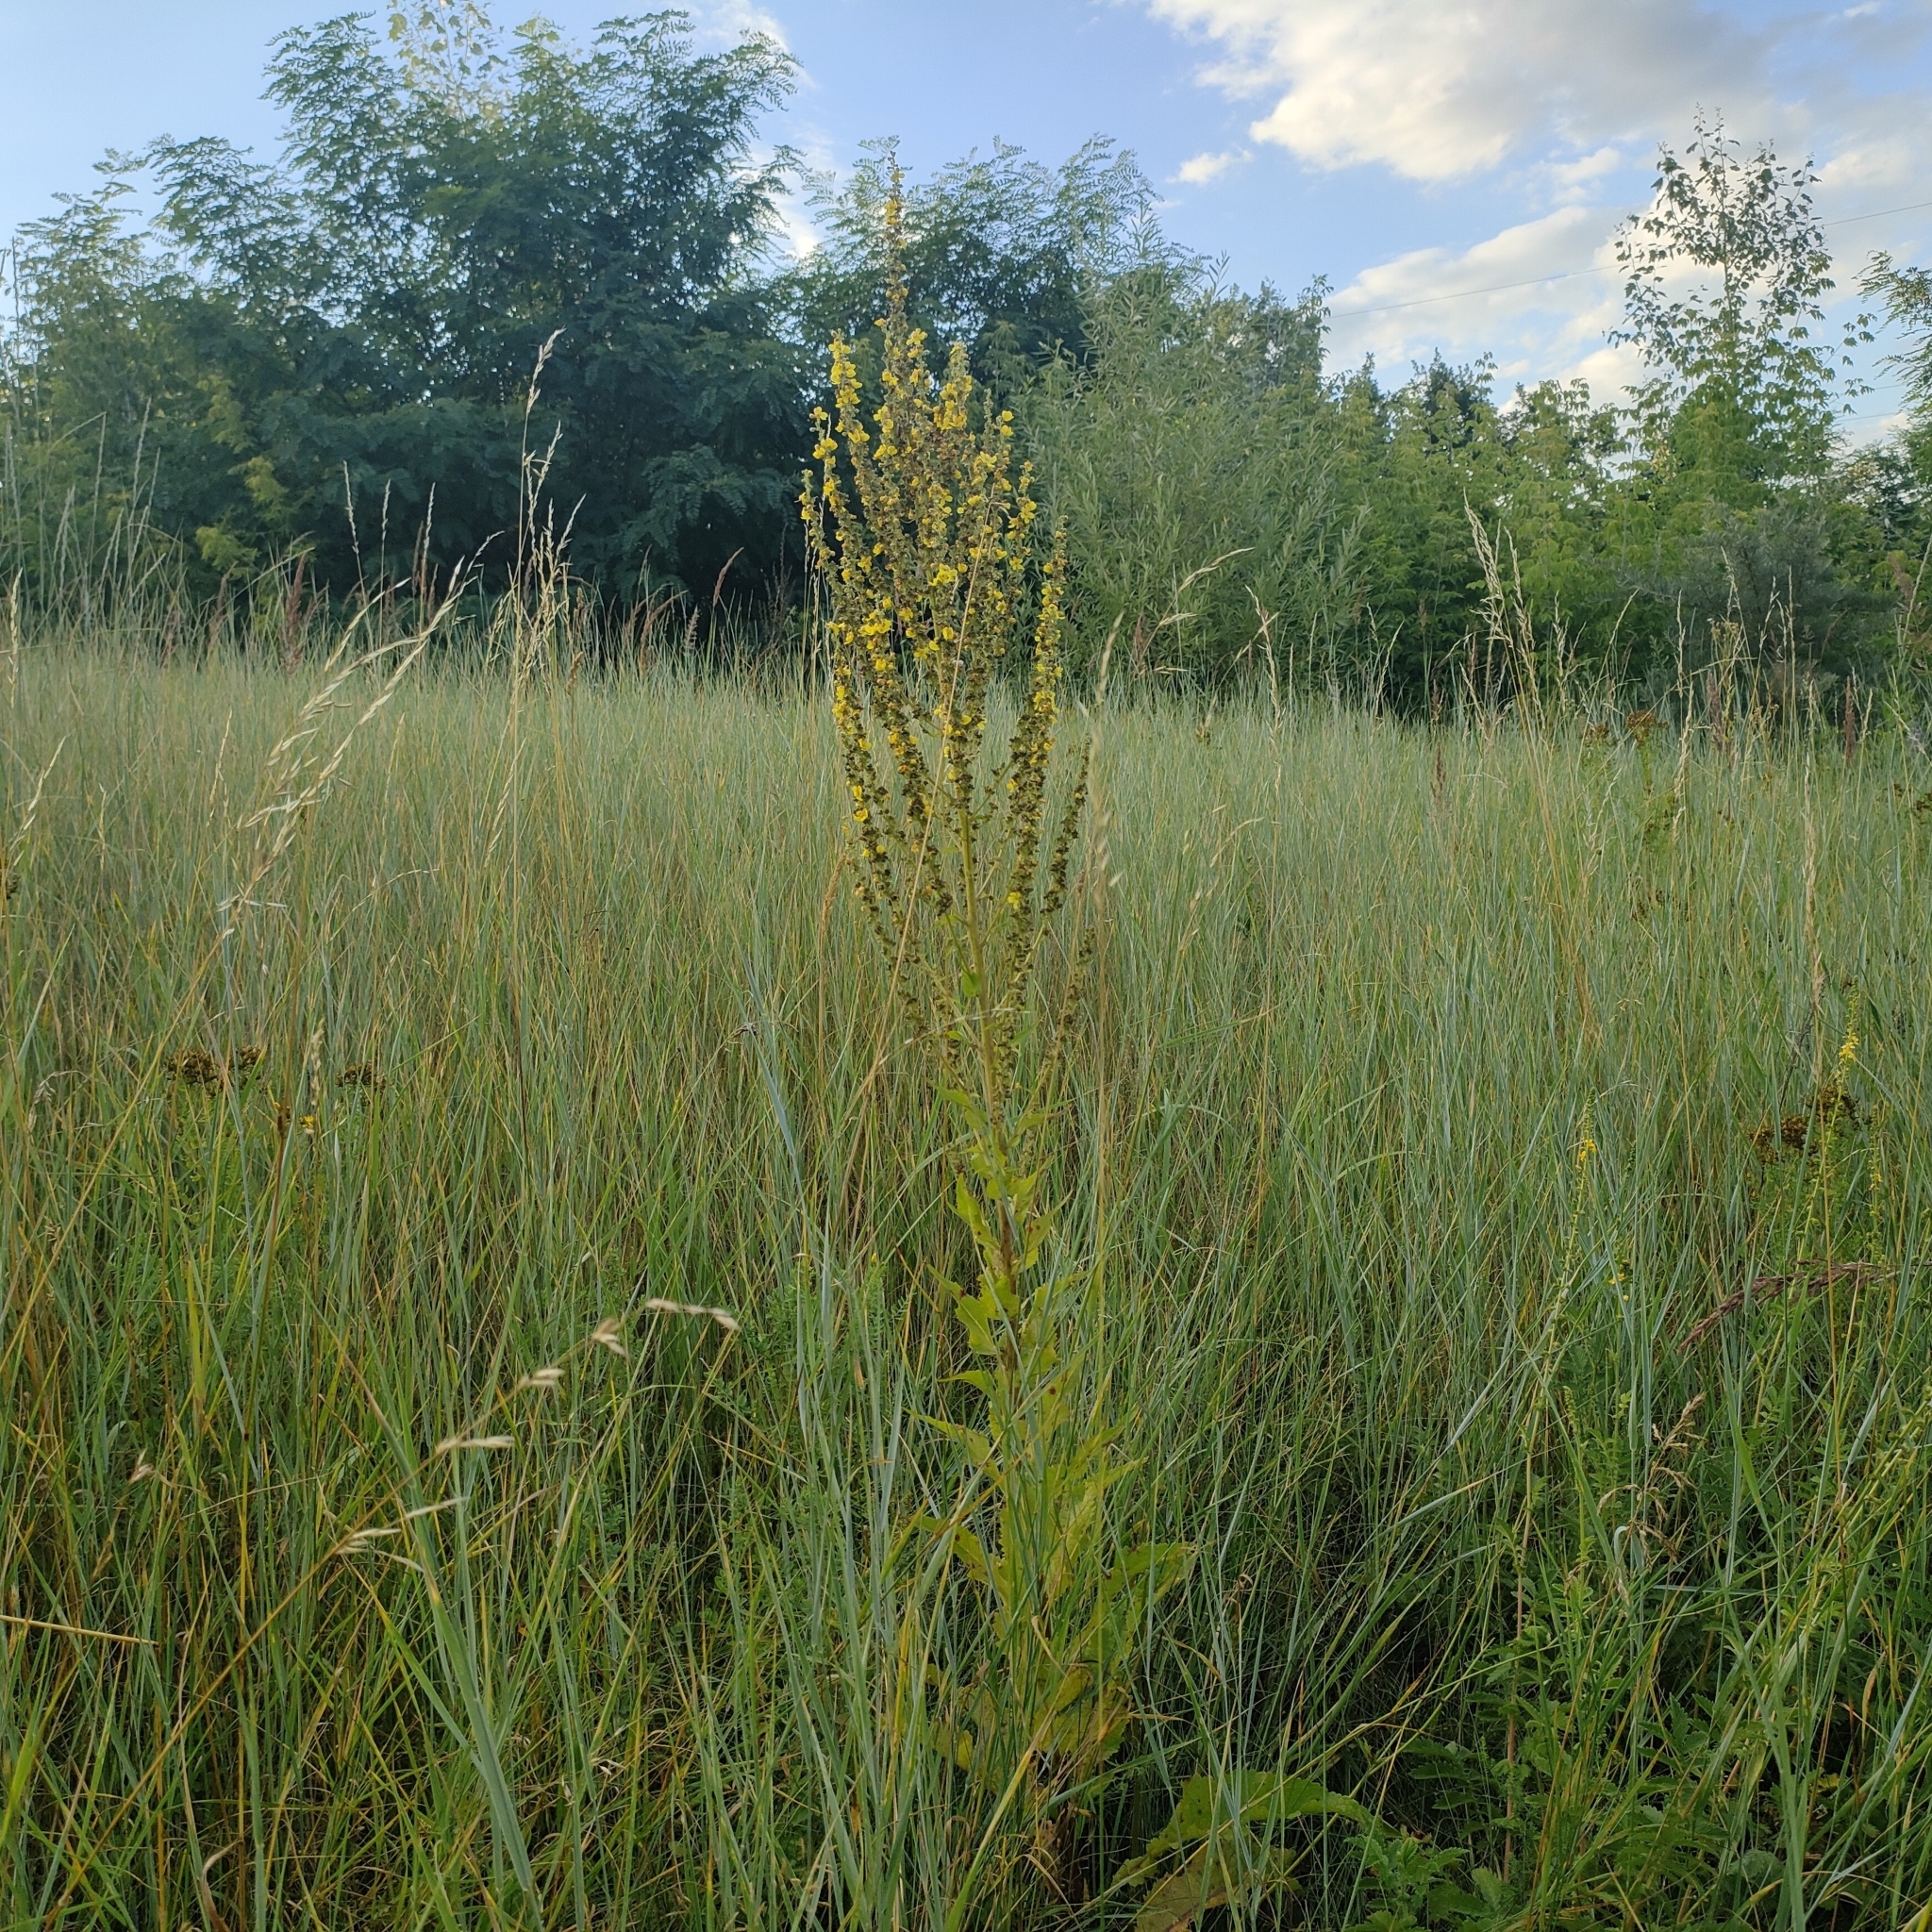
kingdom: Plantae
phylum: Tracheophyta
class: Magnoliopsida
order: Lamiales
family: Scrophulariaceae
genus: Verbascum
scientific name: Verbascum lychnitis
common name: White mullein
